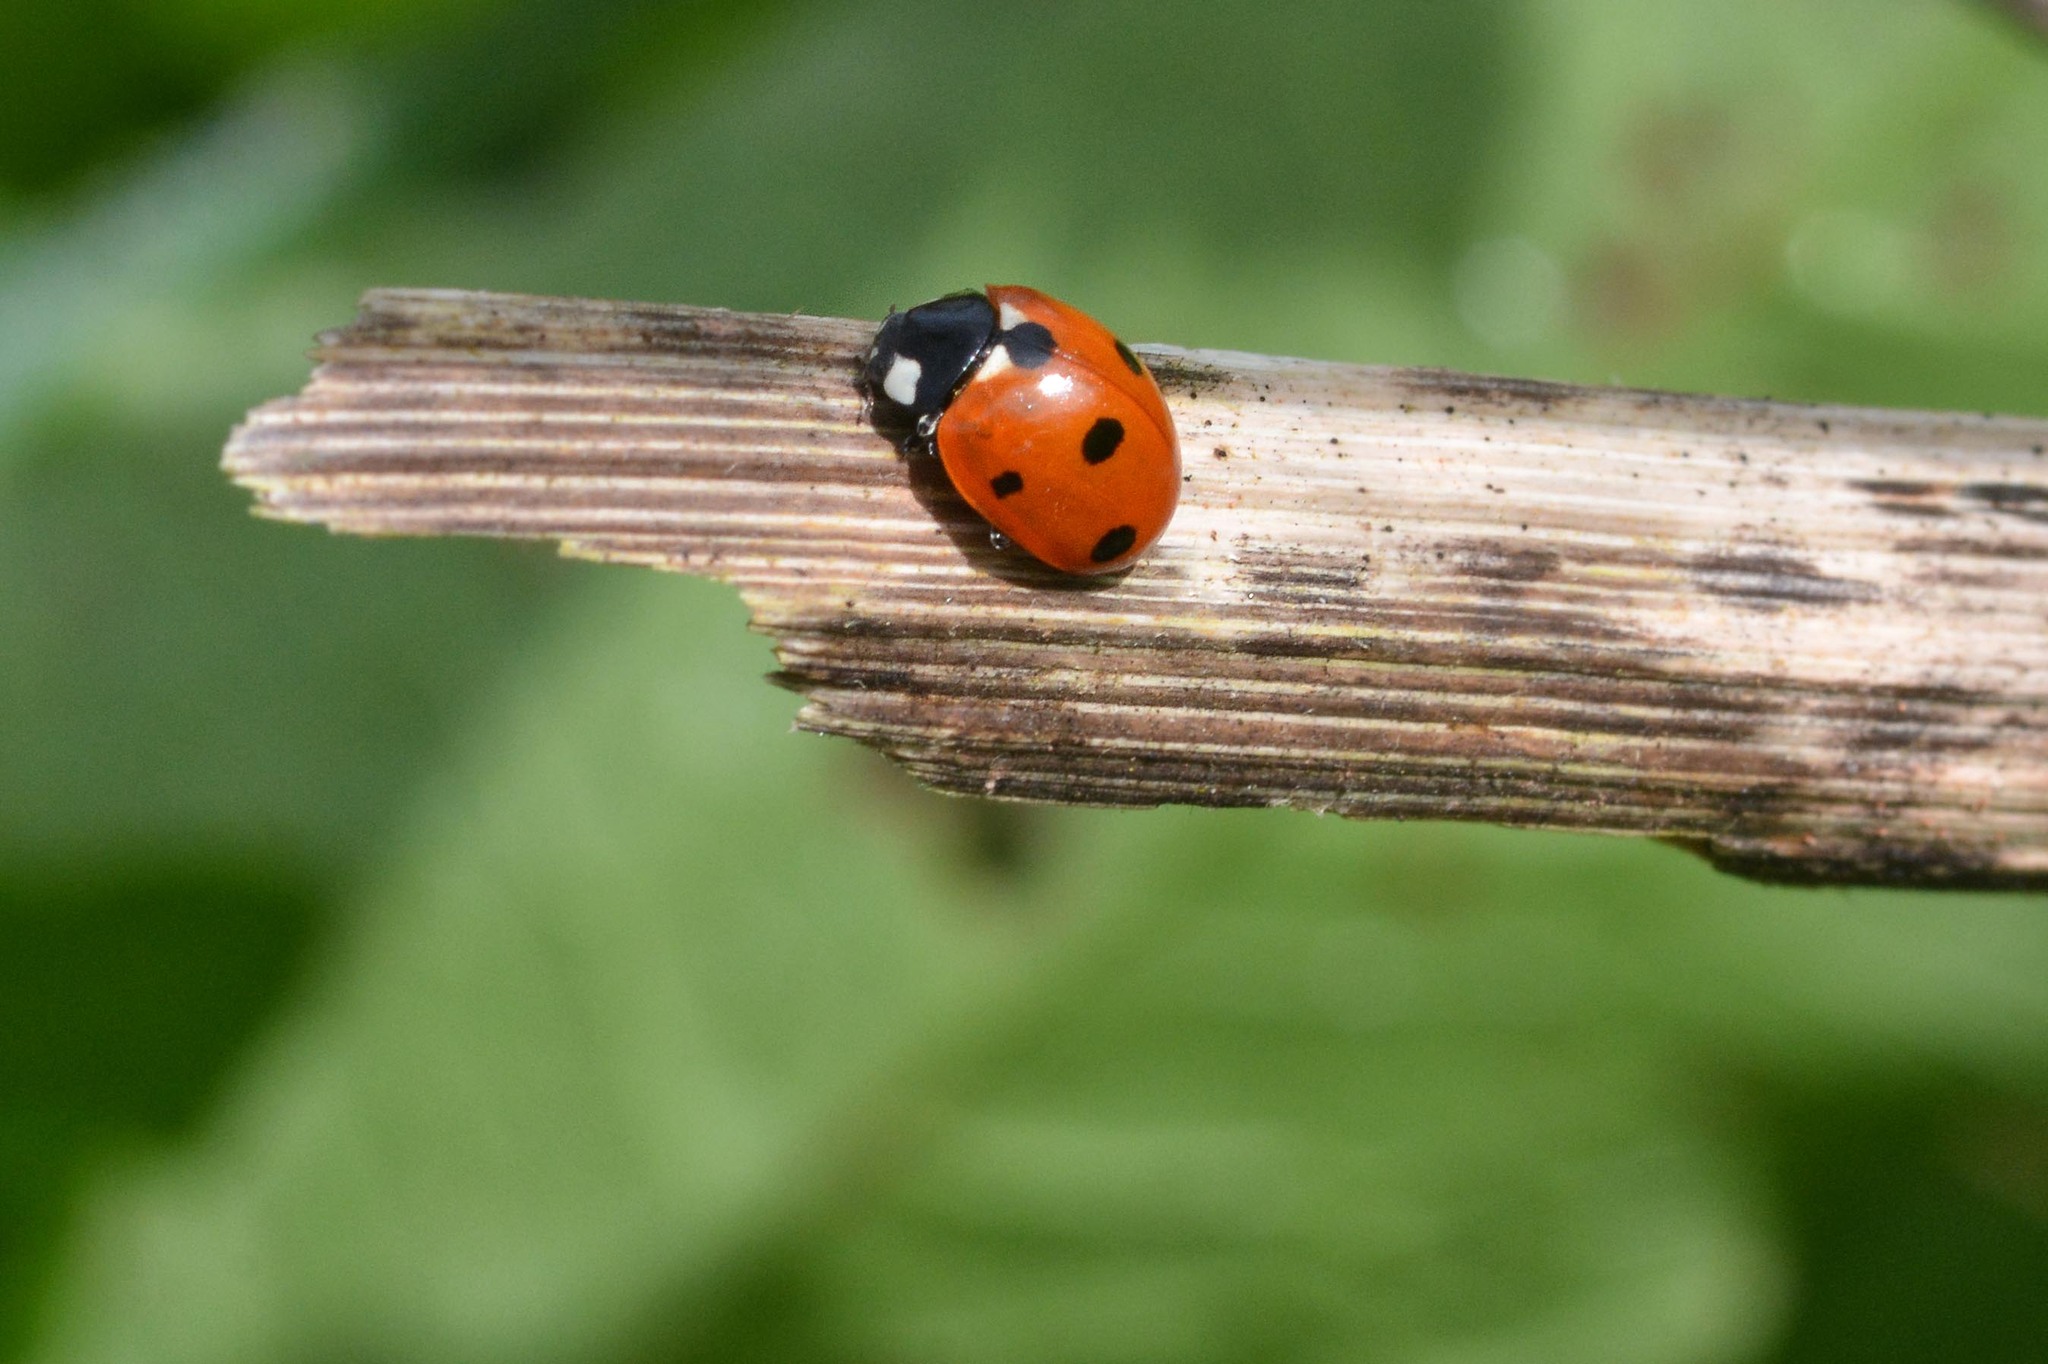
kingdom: Animalia
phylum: Arthropoda
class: Insecta
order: Coleoptera
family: Coccinellidae
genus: Coccinella
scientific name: Coccinella septempunctata
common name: Sevenspotted lady beetle
